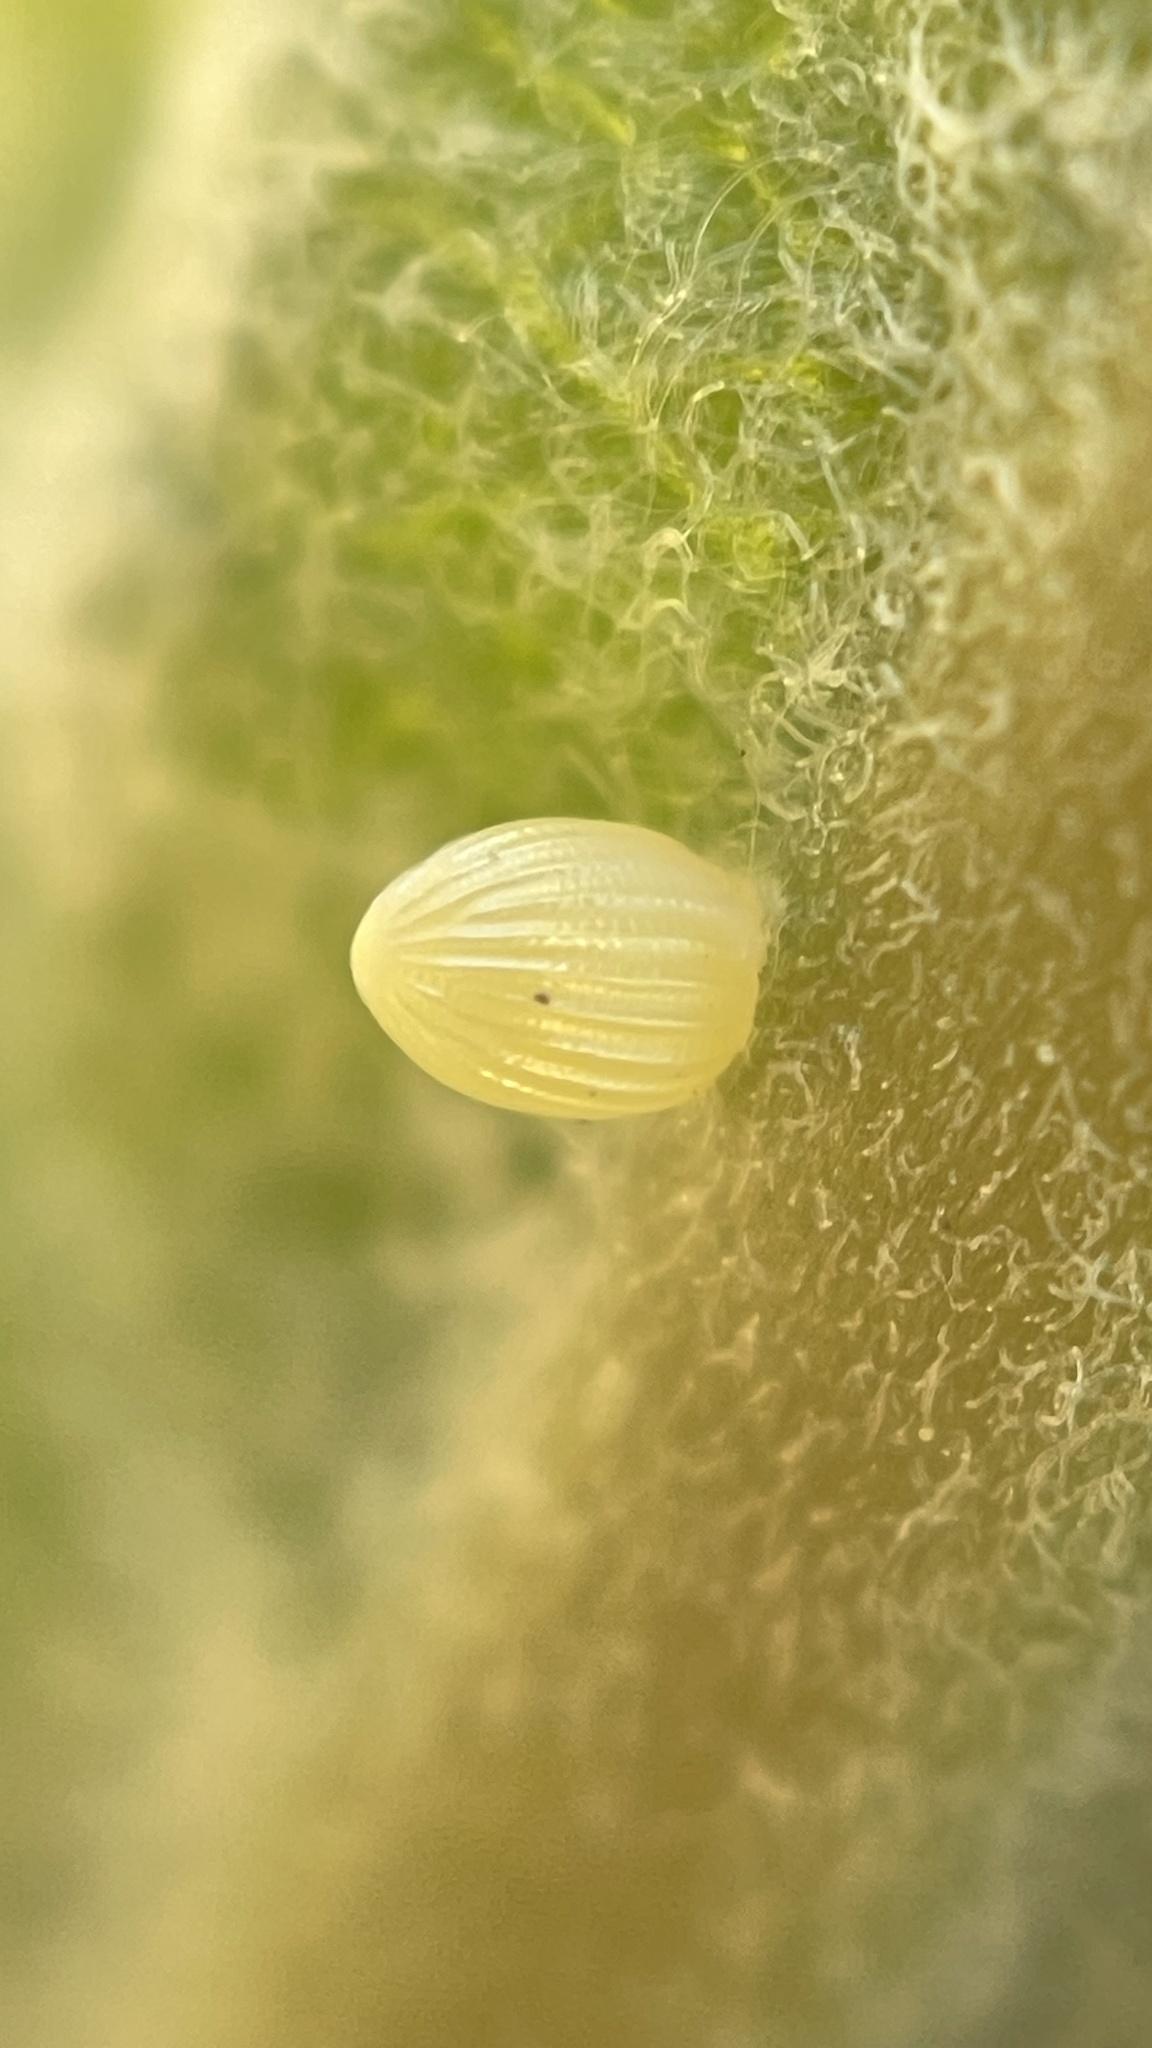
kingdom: Animalia
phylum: Arthropoda
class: Insecta
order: Lepidoptera
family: Nymphalidae
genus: Danaus
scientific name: Danaus plexippus
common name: Monarch
